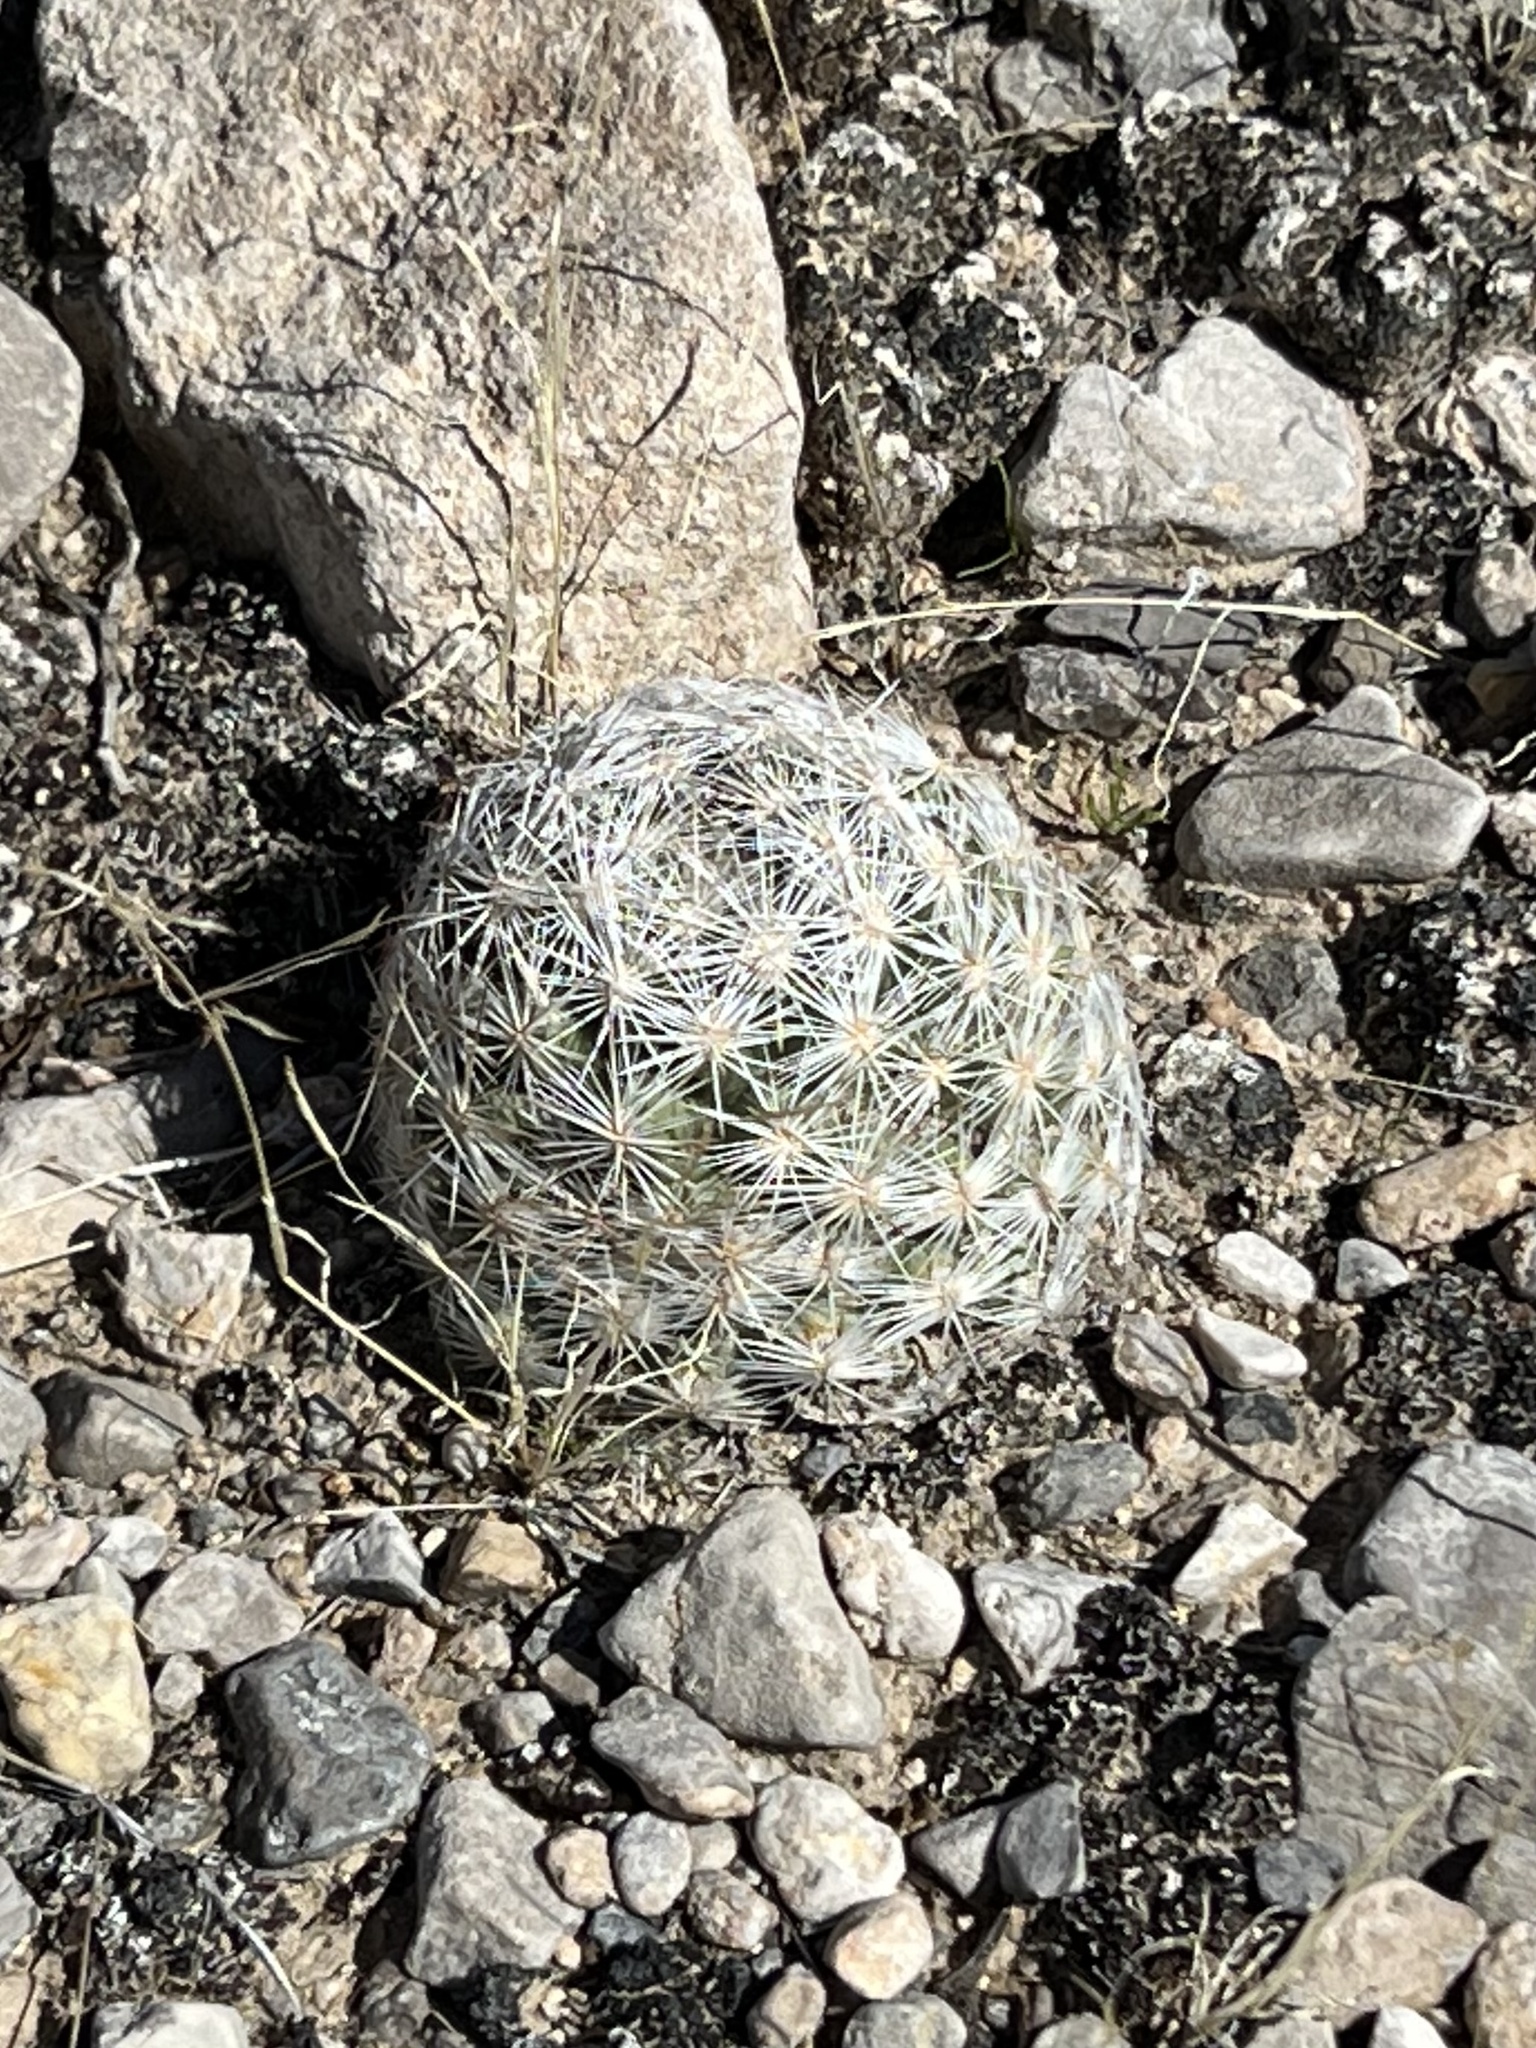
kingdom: Plantae
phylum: Tracheophyta
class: Magnoliopsida
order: Caryophyllales
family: Cactaceae
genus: Pelecyphora
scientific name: Pelecyphora dasyacantha
